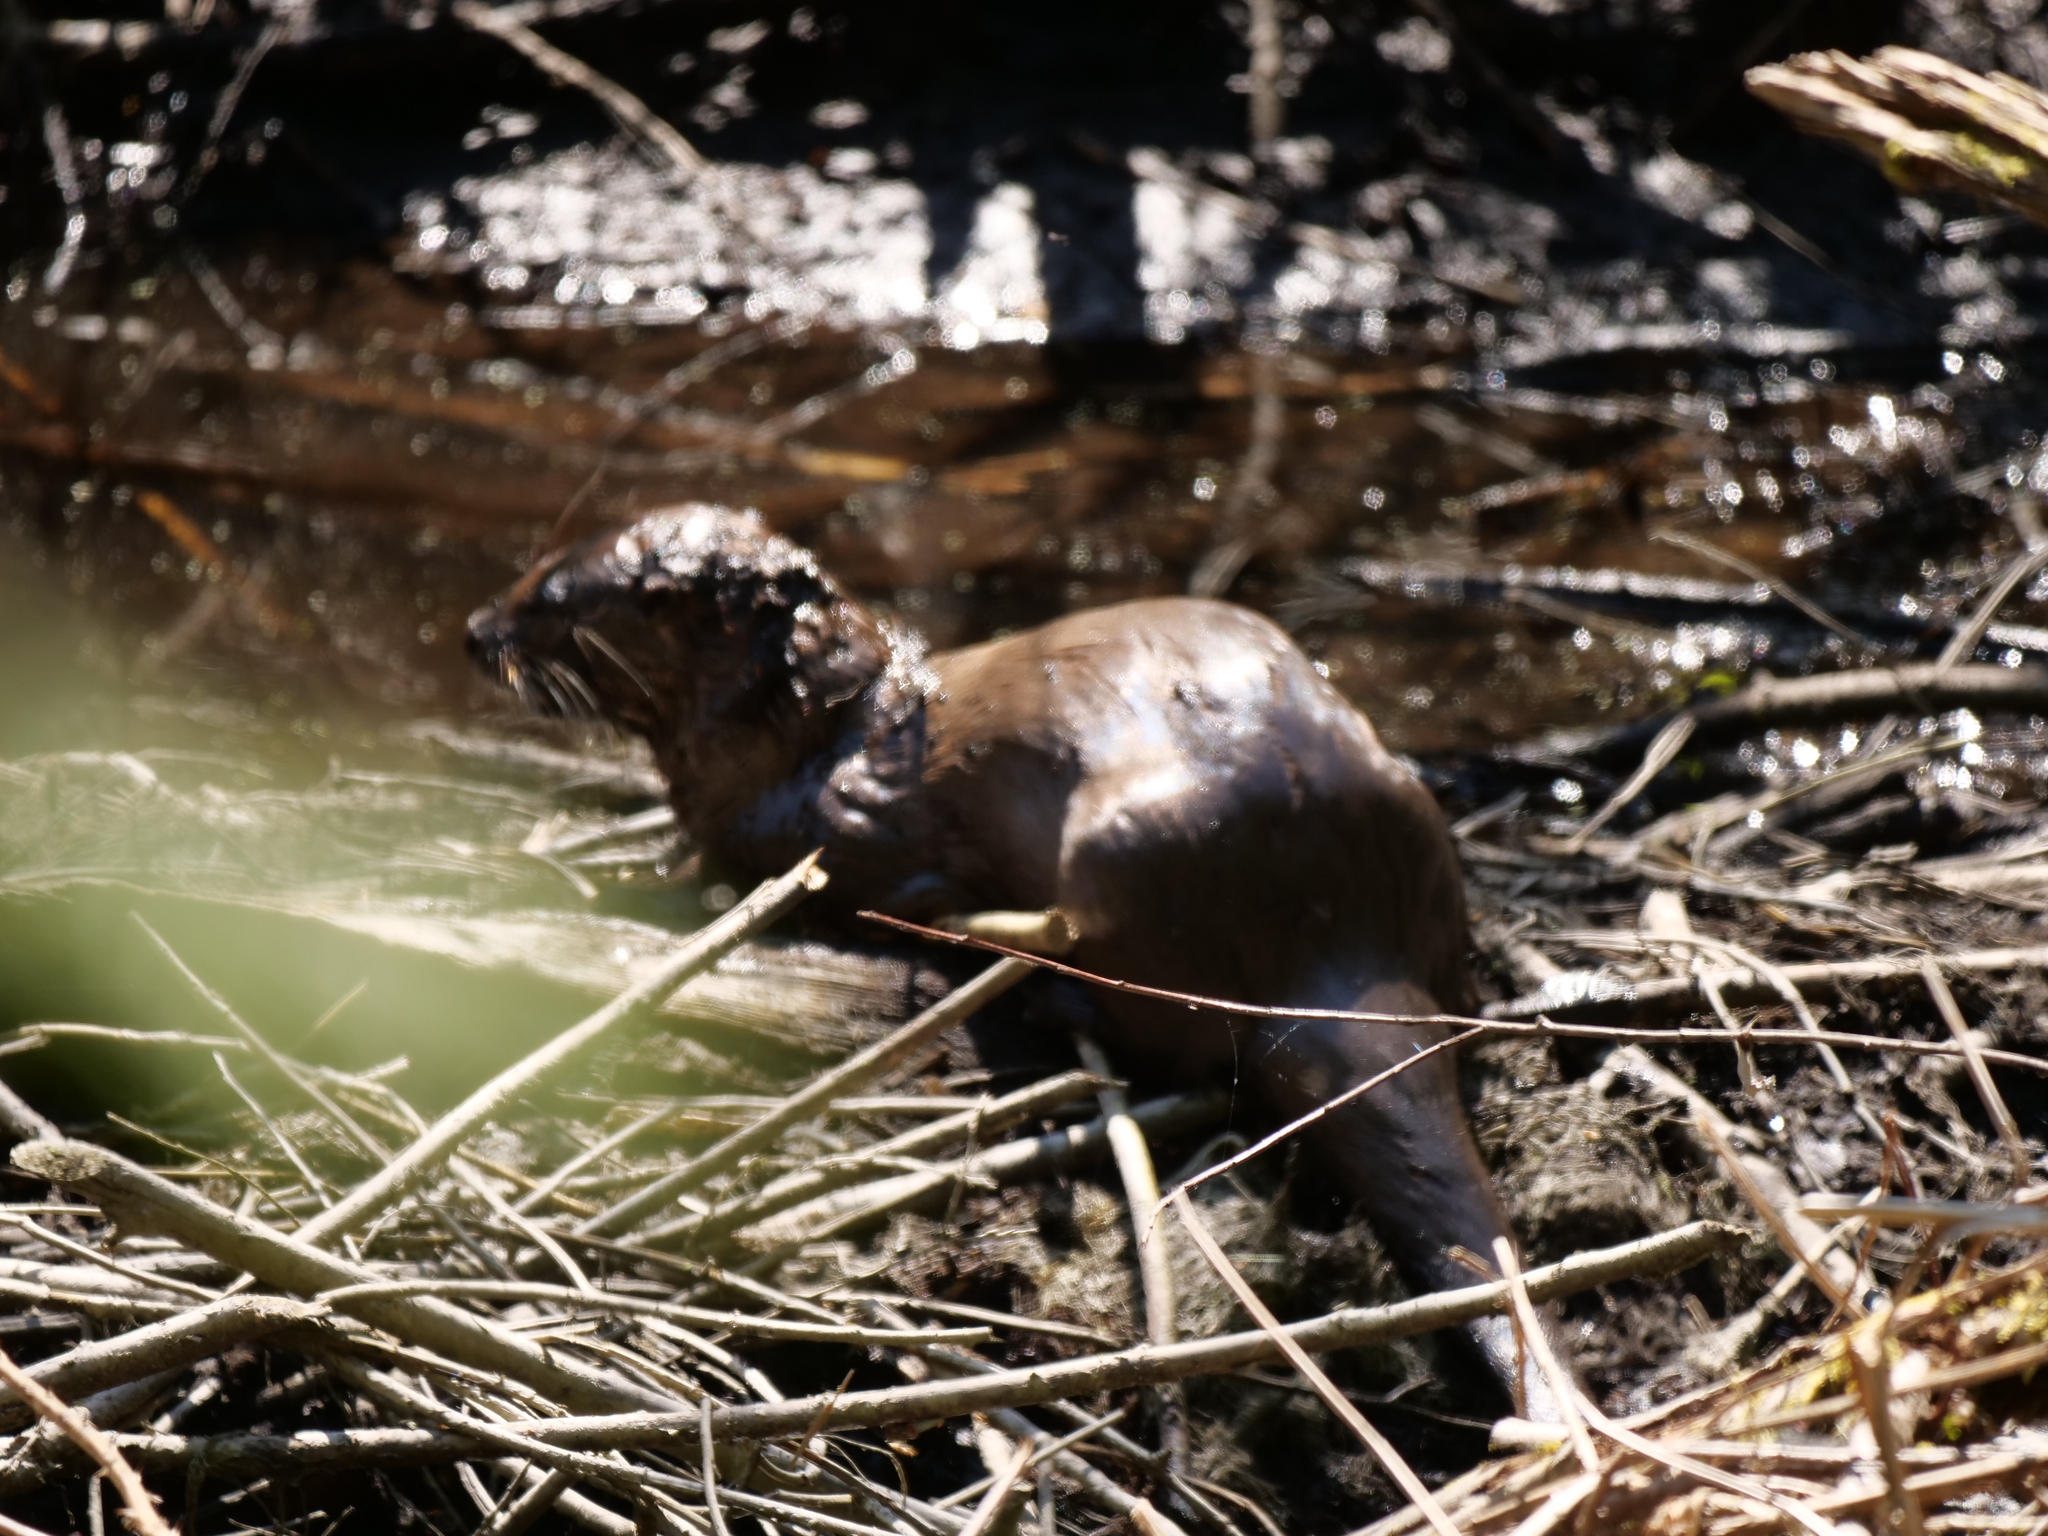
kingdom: Animalia
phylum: Chordata
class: Mammalia
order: Carnivora
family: Mustelidae
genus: Lontra
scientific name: Lontra canadensis
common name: North american river otter
